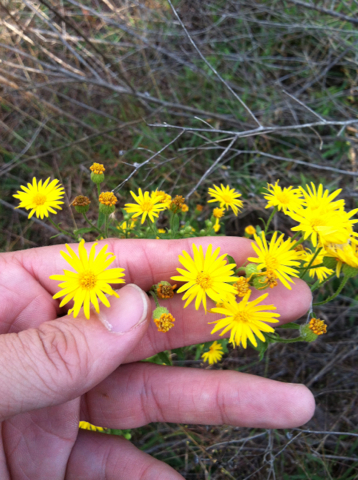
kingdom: Plantae
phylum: Tracheophyta
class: Magnoliopsida
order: Asterales
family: Asteraceae
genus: Heterotheca
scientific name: Heterotheca subaxillaris
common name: Camphorweed
